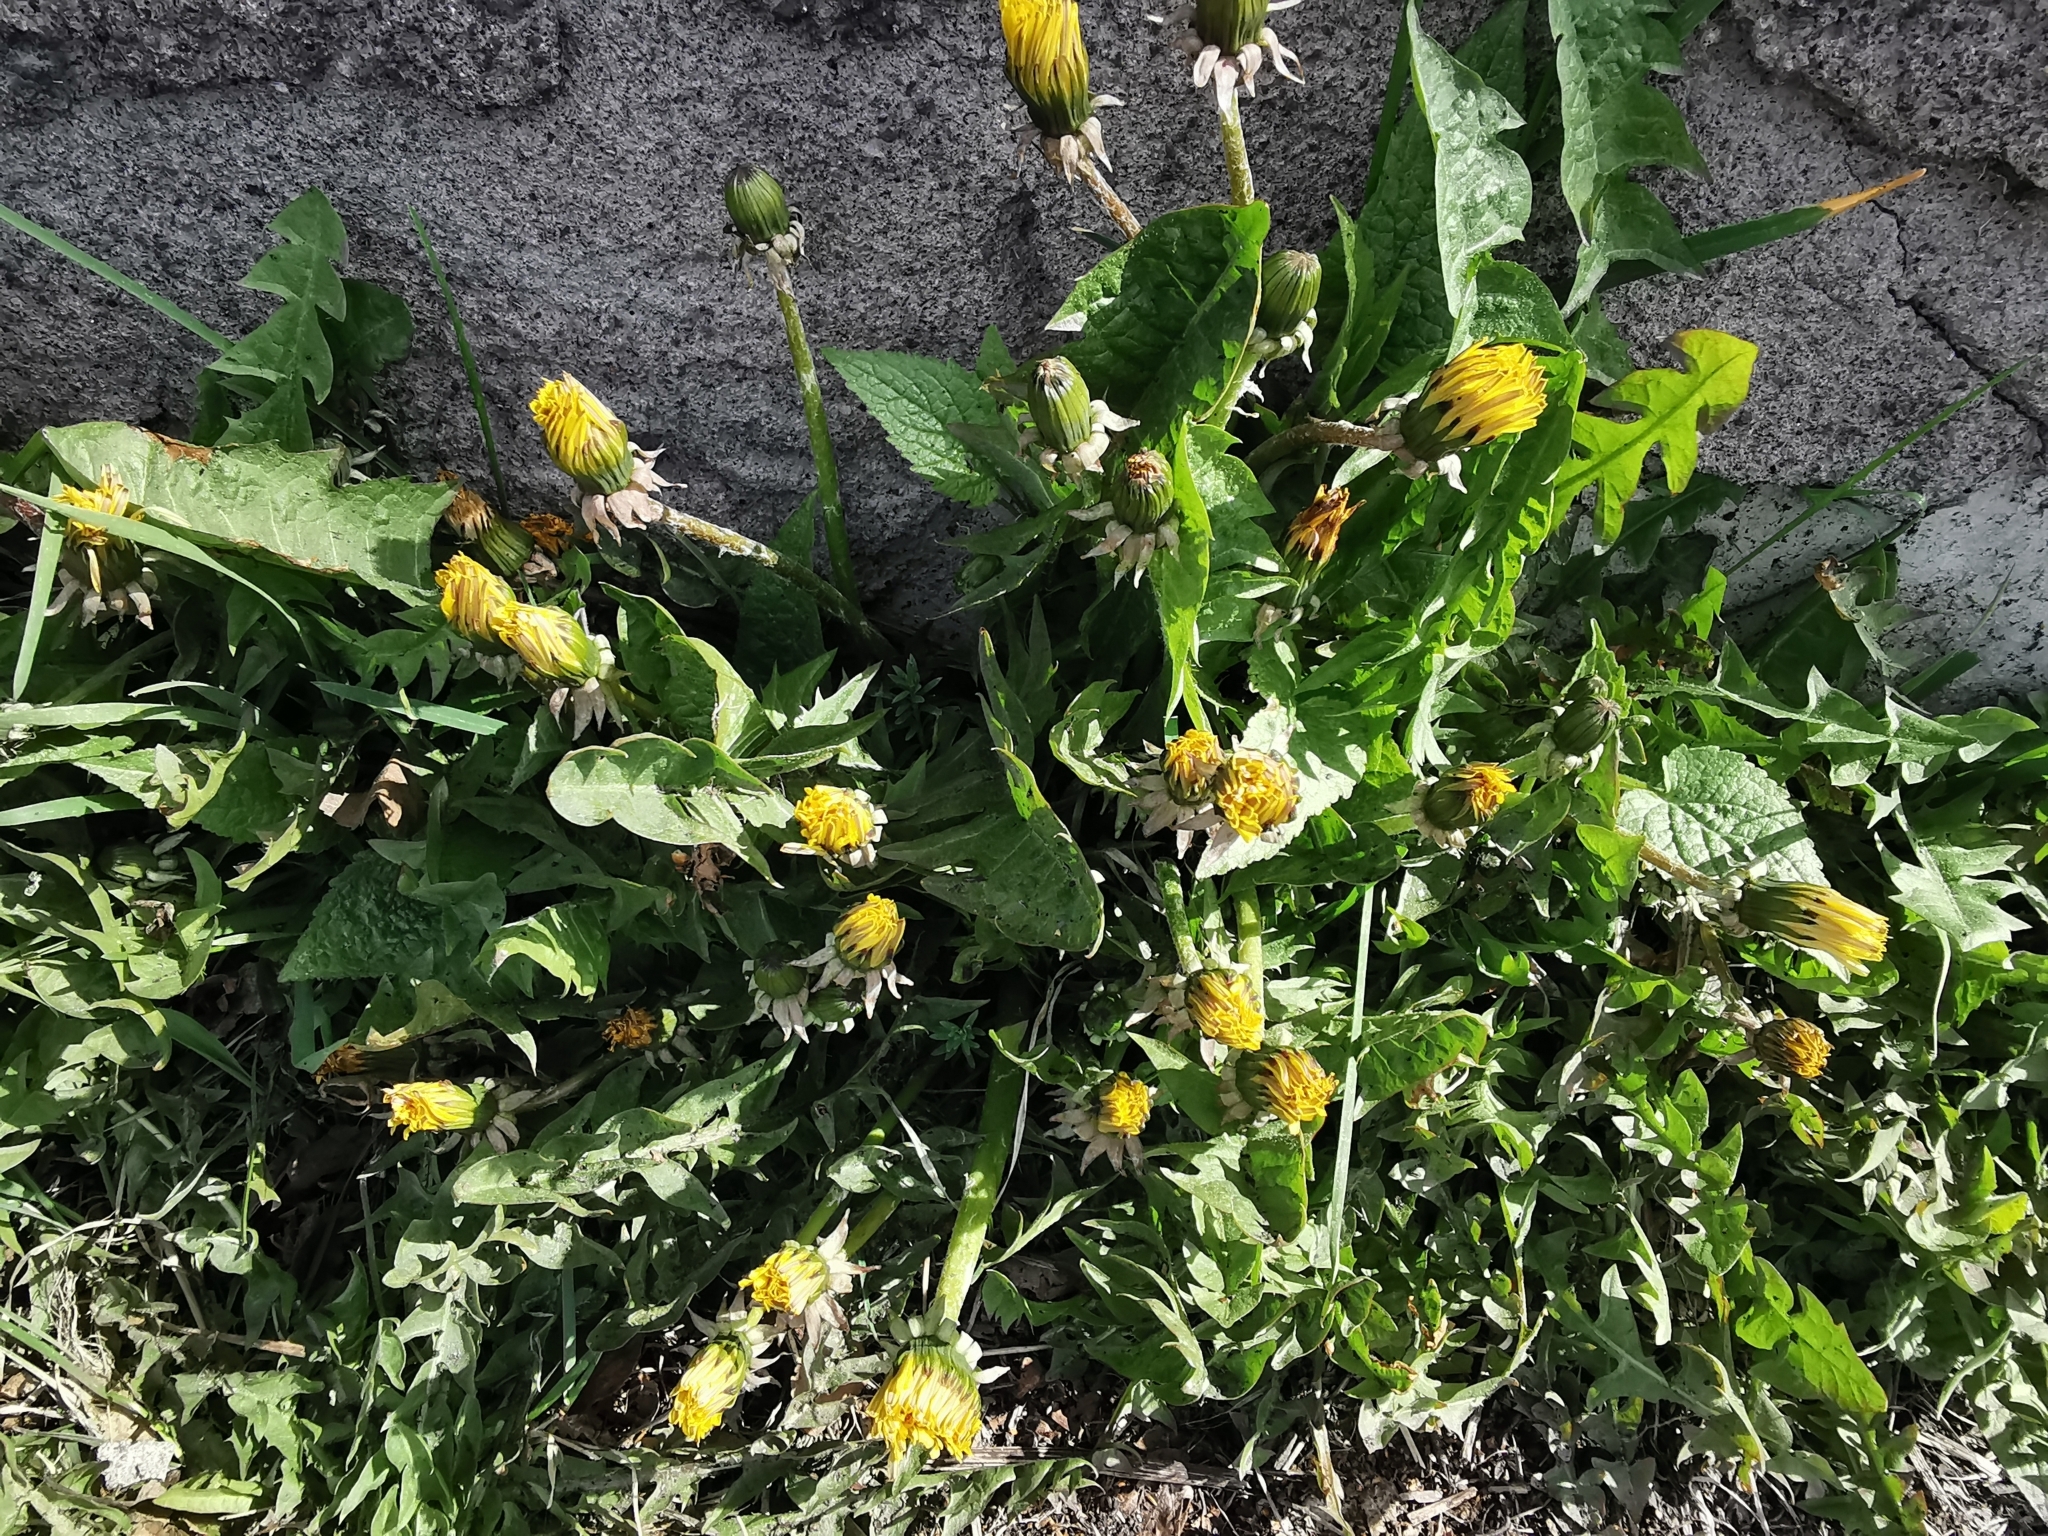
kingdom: Plantae
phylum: Tracheophyta
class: Magnoliopsida
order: Asterales
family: Asteraceae
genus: Taraxacum
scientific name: Taraxacum officinale
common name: Common dandelion
